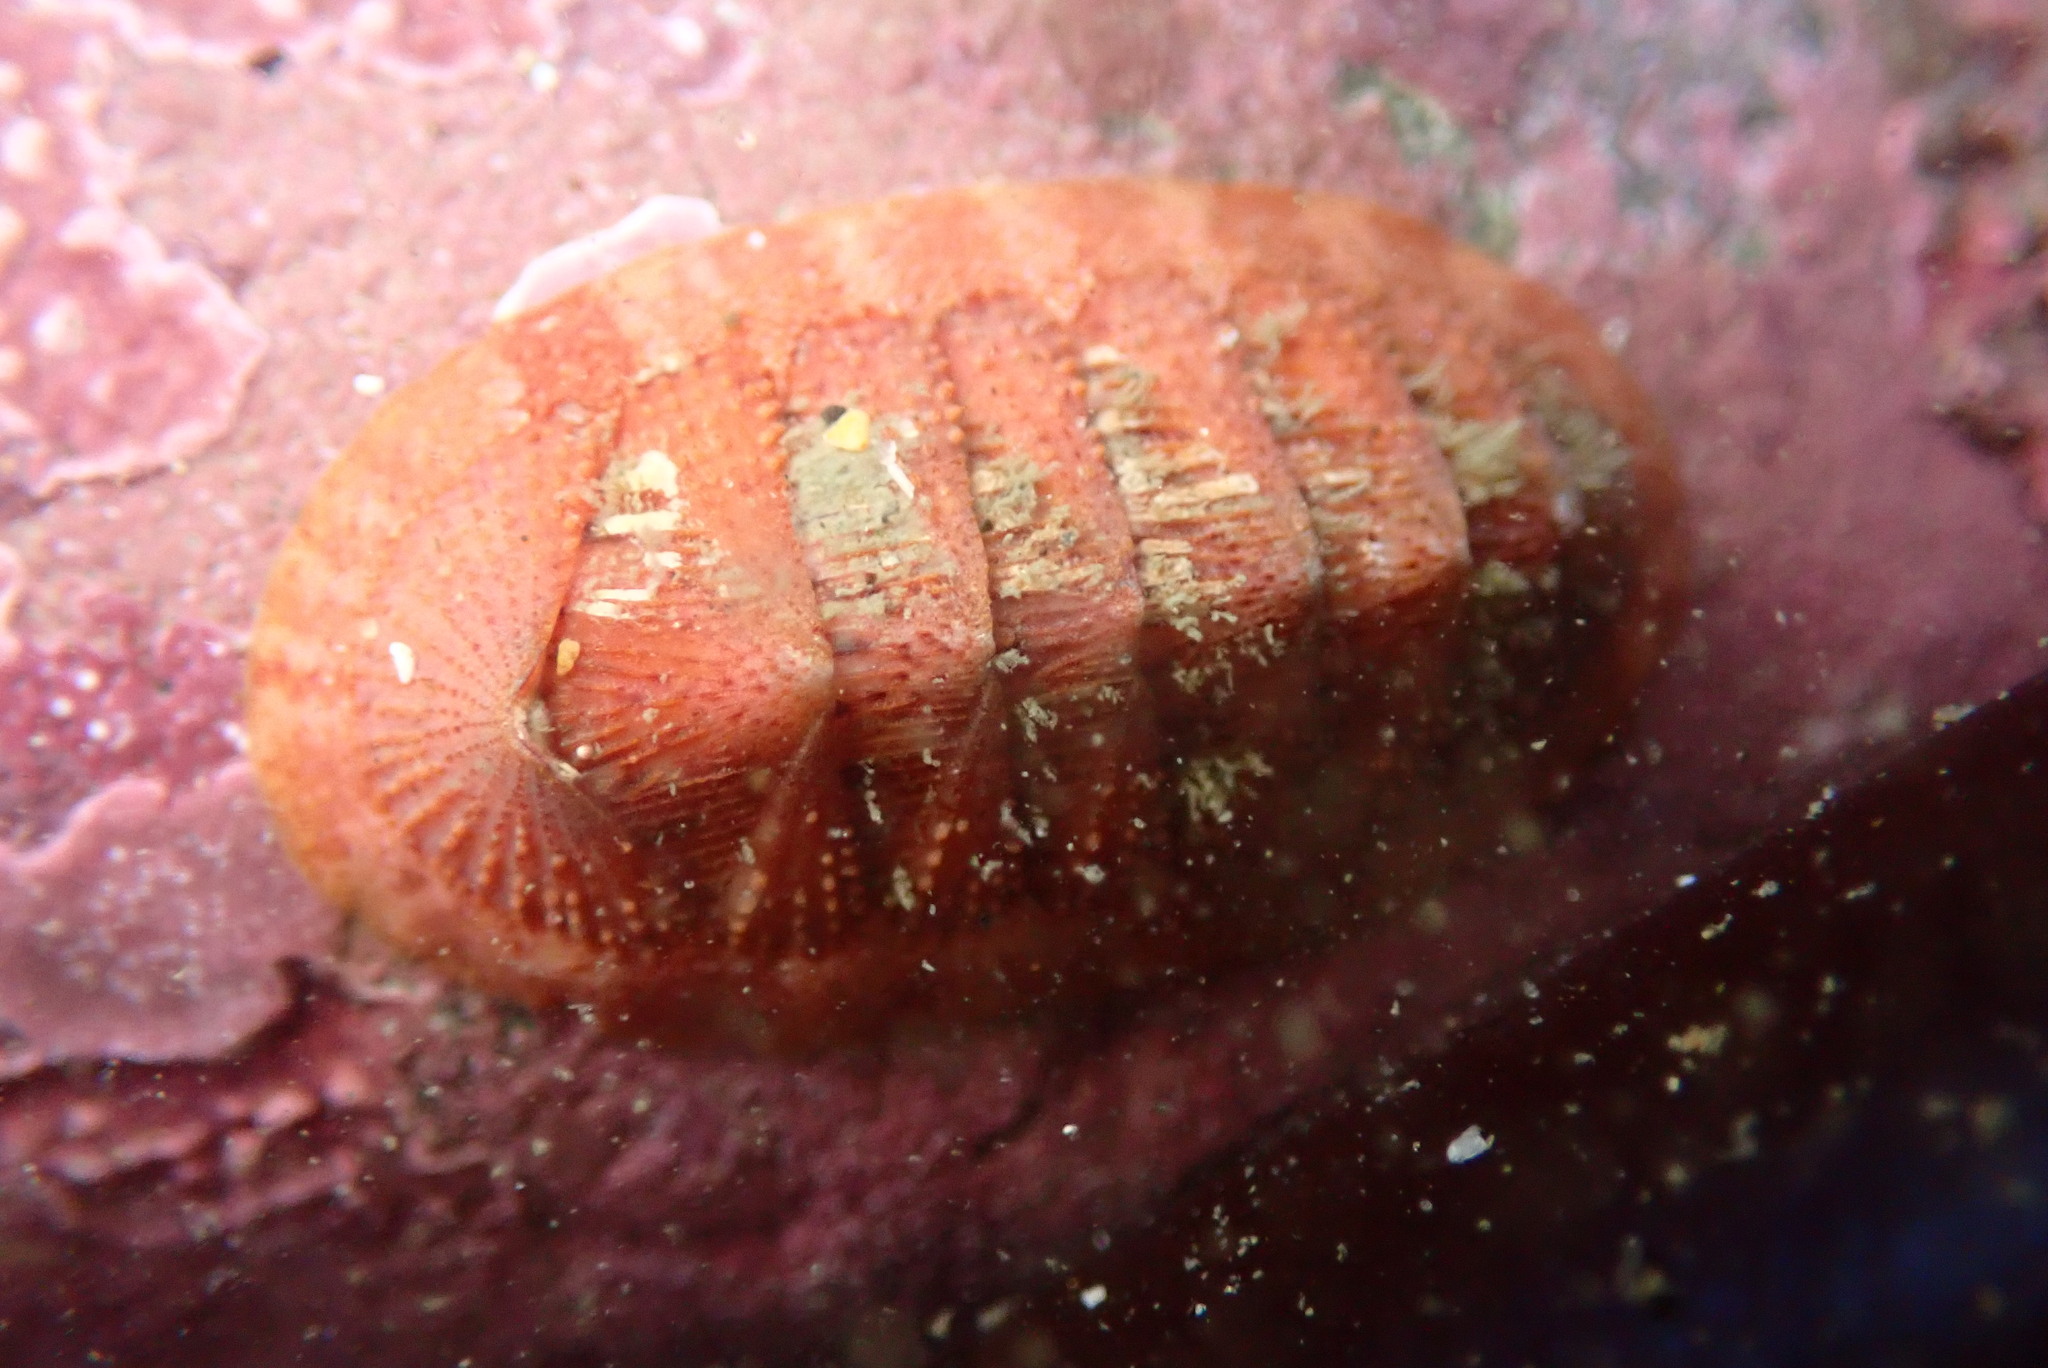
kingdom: Animalia
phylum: Mollusca
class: Polyplacophora
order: Chitonida
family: Ischnochitonidae
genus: Lepidozona
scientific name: Lepidozona mertensii
